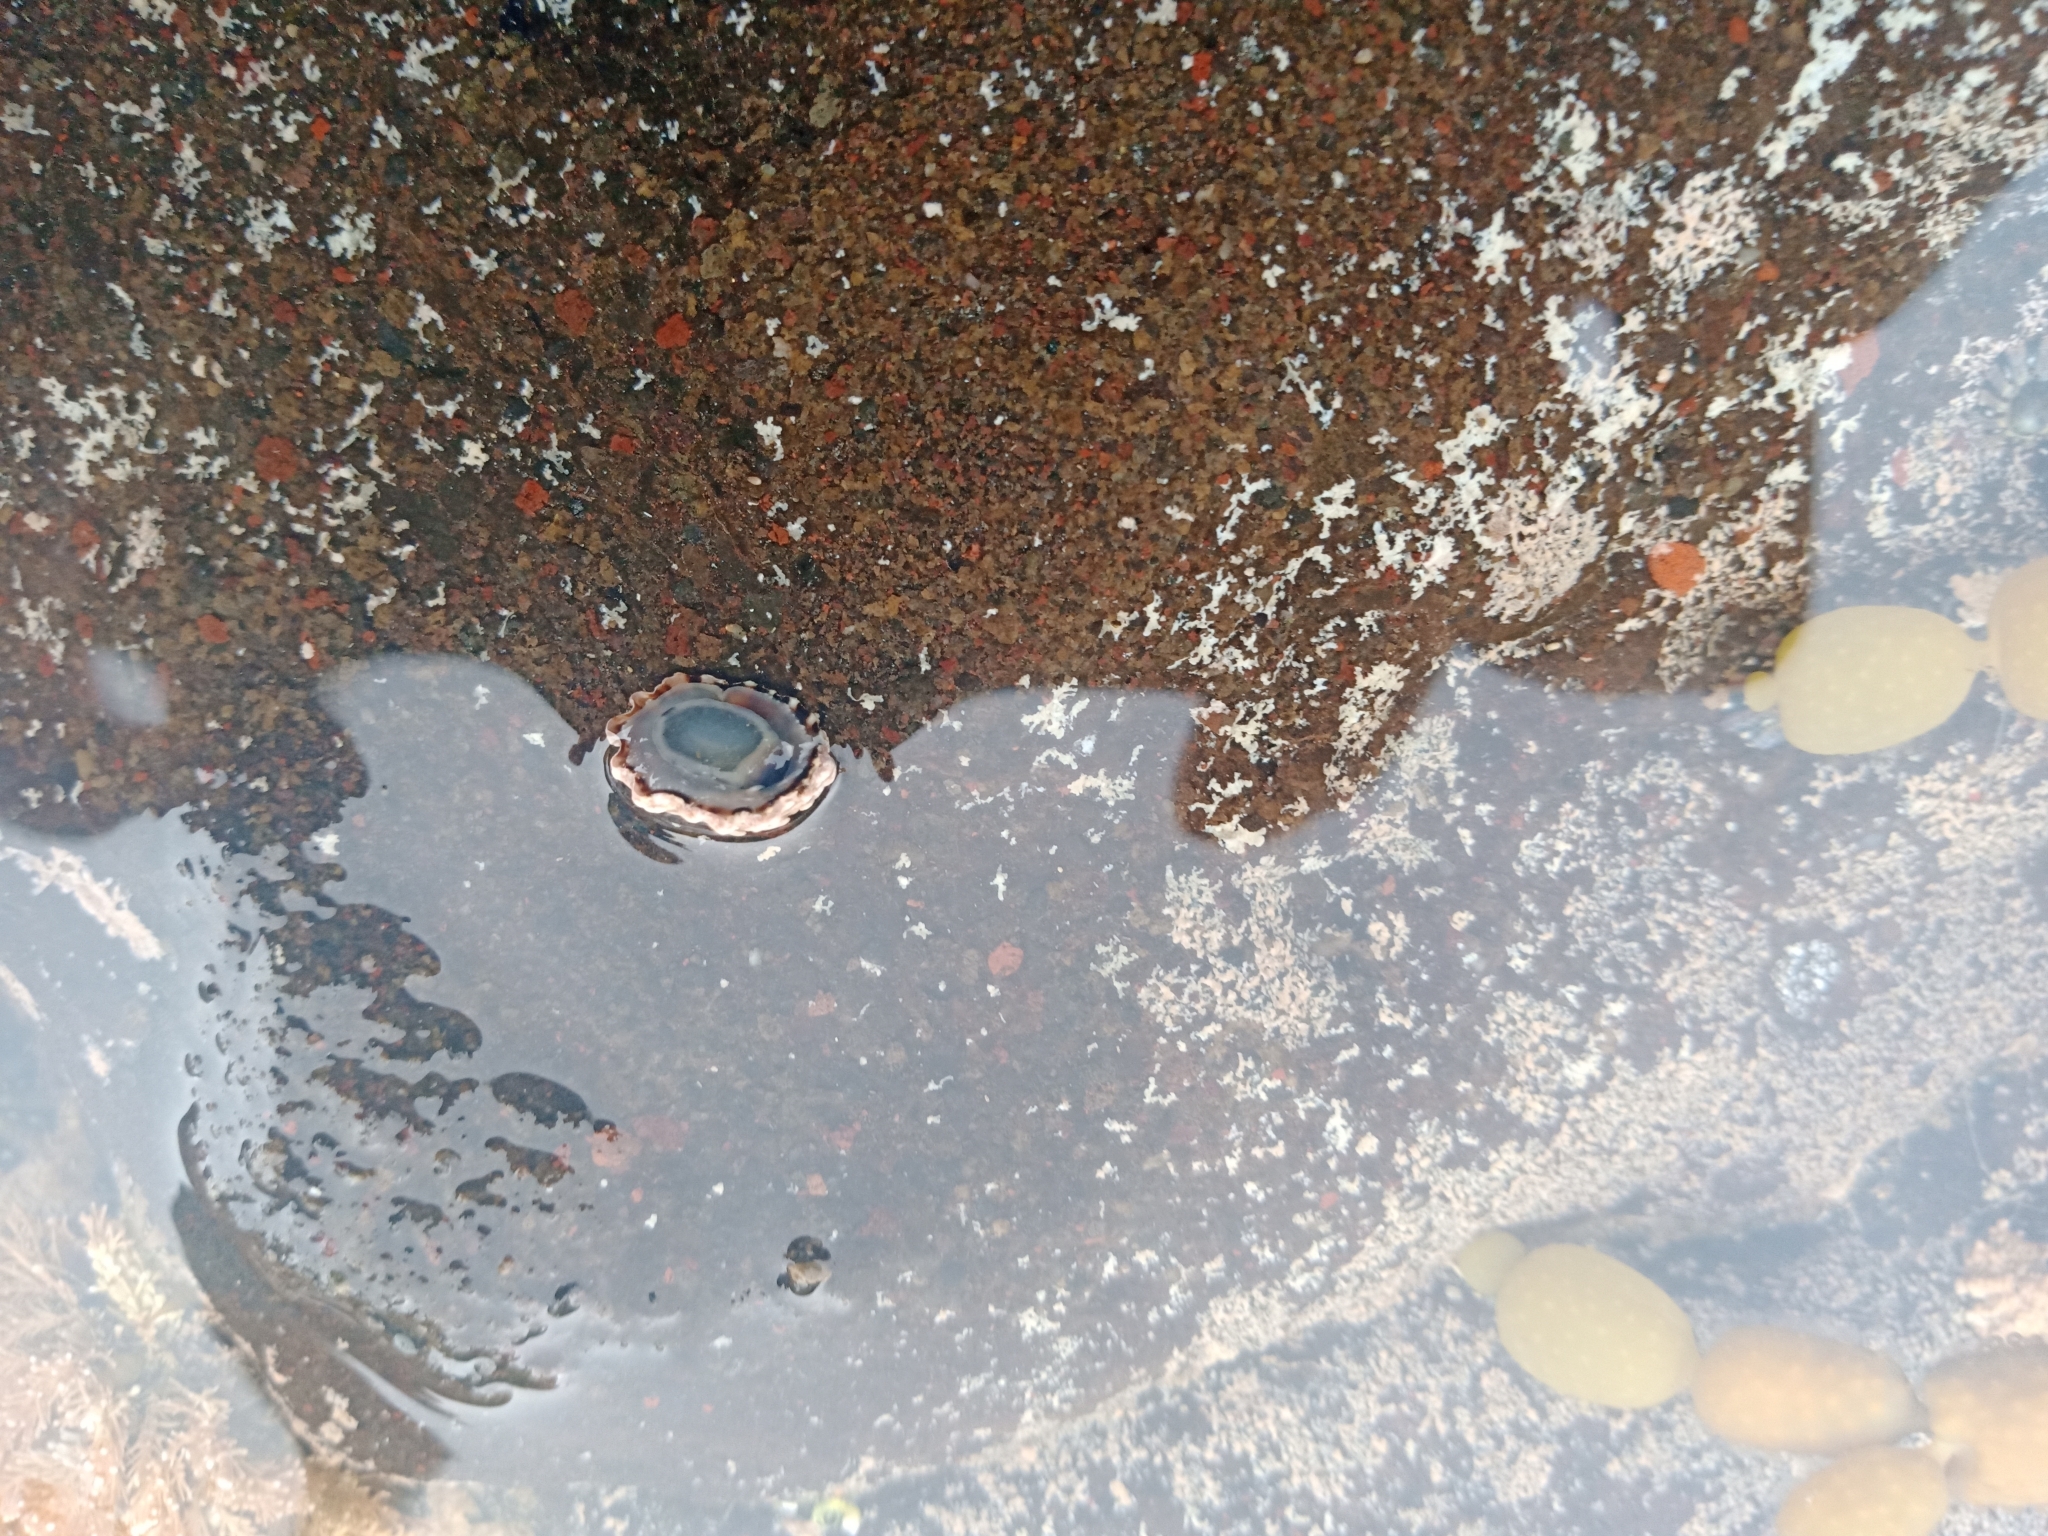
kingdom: Animalia
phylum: Mollusca
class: Gastropoda
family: Lottiidae
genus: Patelloida
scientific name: Patelloida corticata
